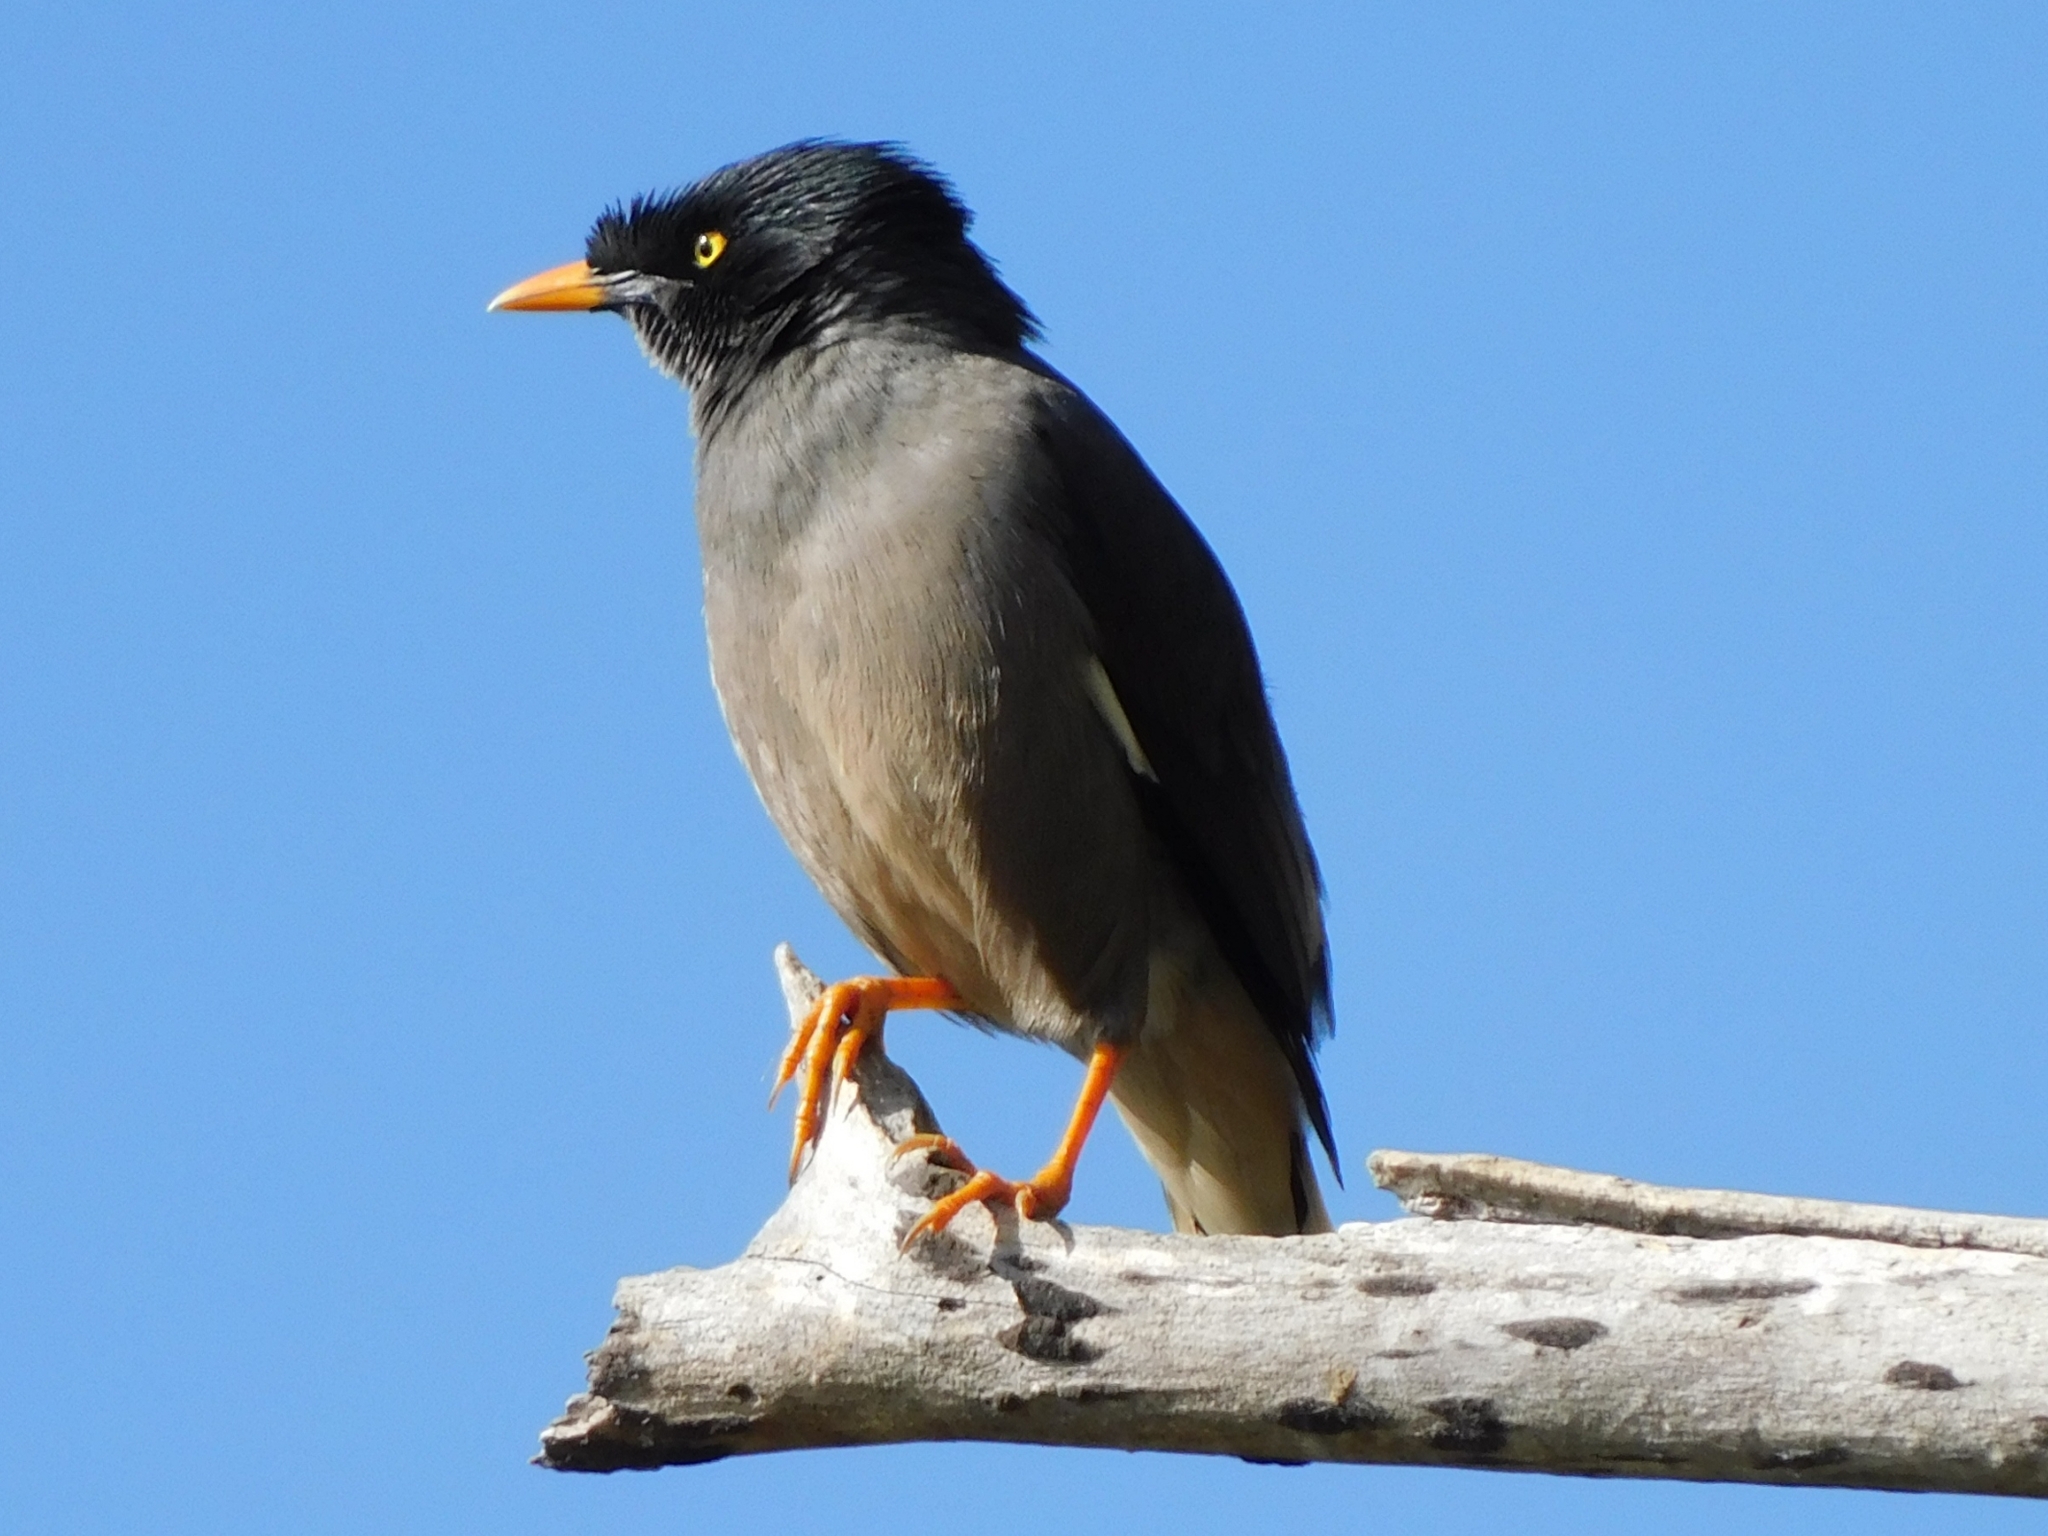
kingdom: Animalia
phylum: Chordata
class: Aves
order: Passeriformes
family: Sturnidae
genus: Acridotheres
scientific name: Acridotheres fuscus
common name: Jungle myna
